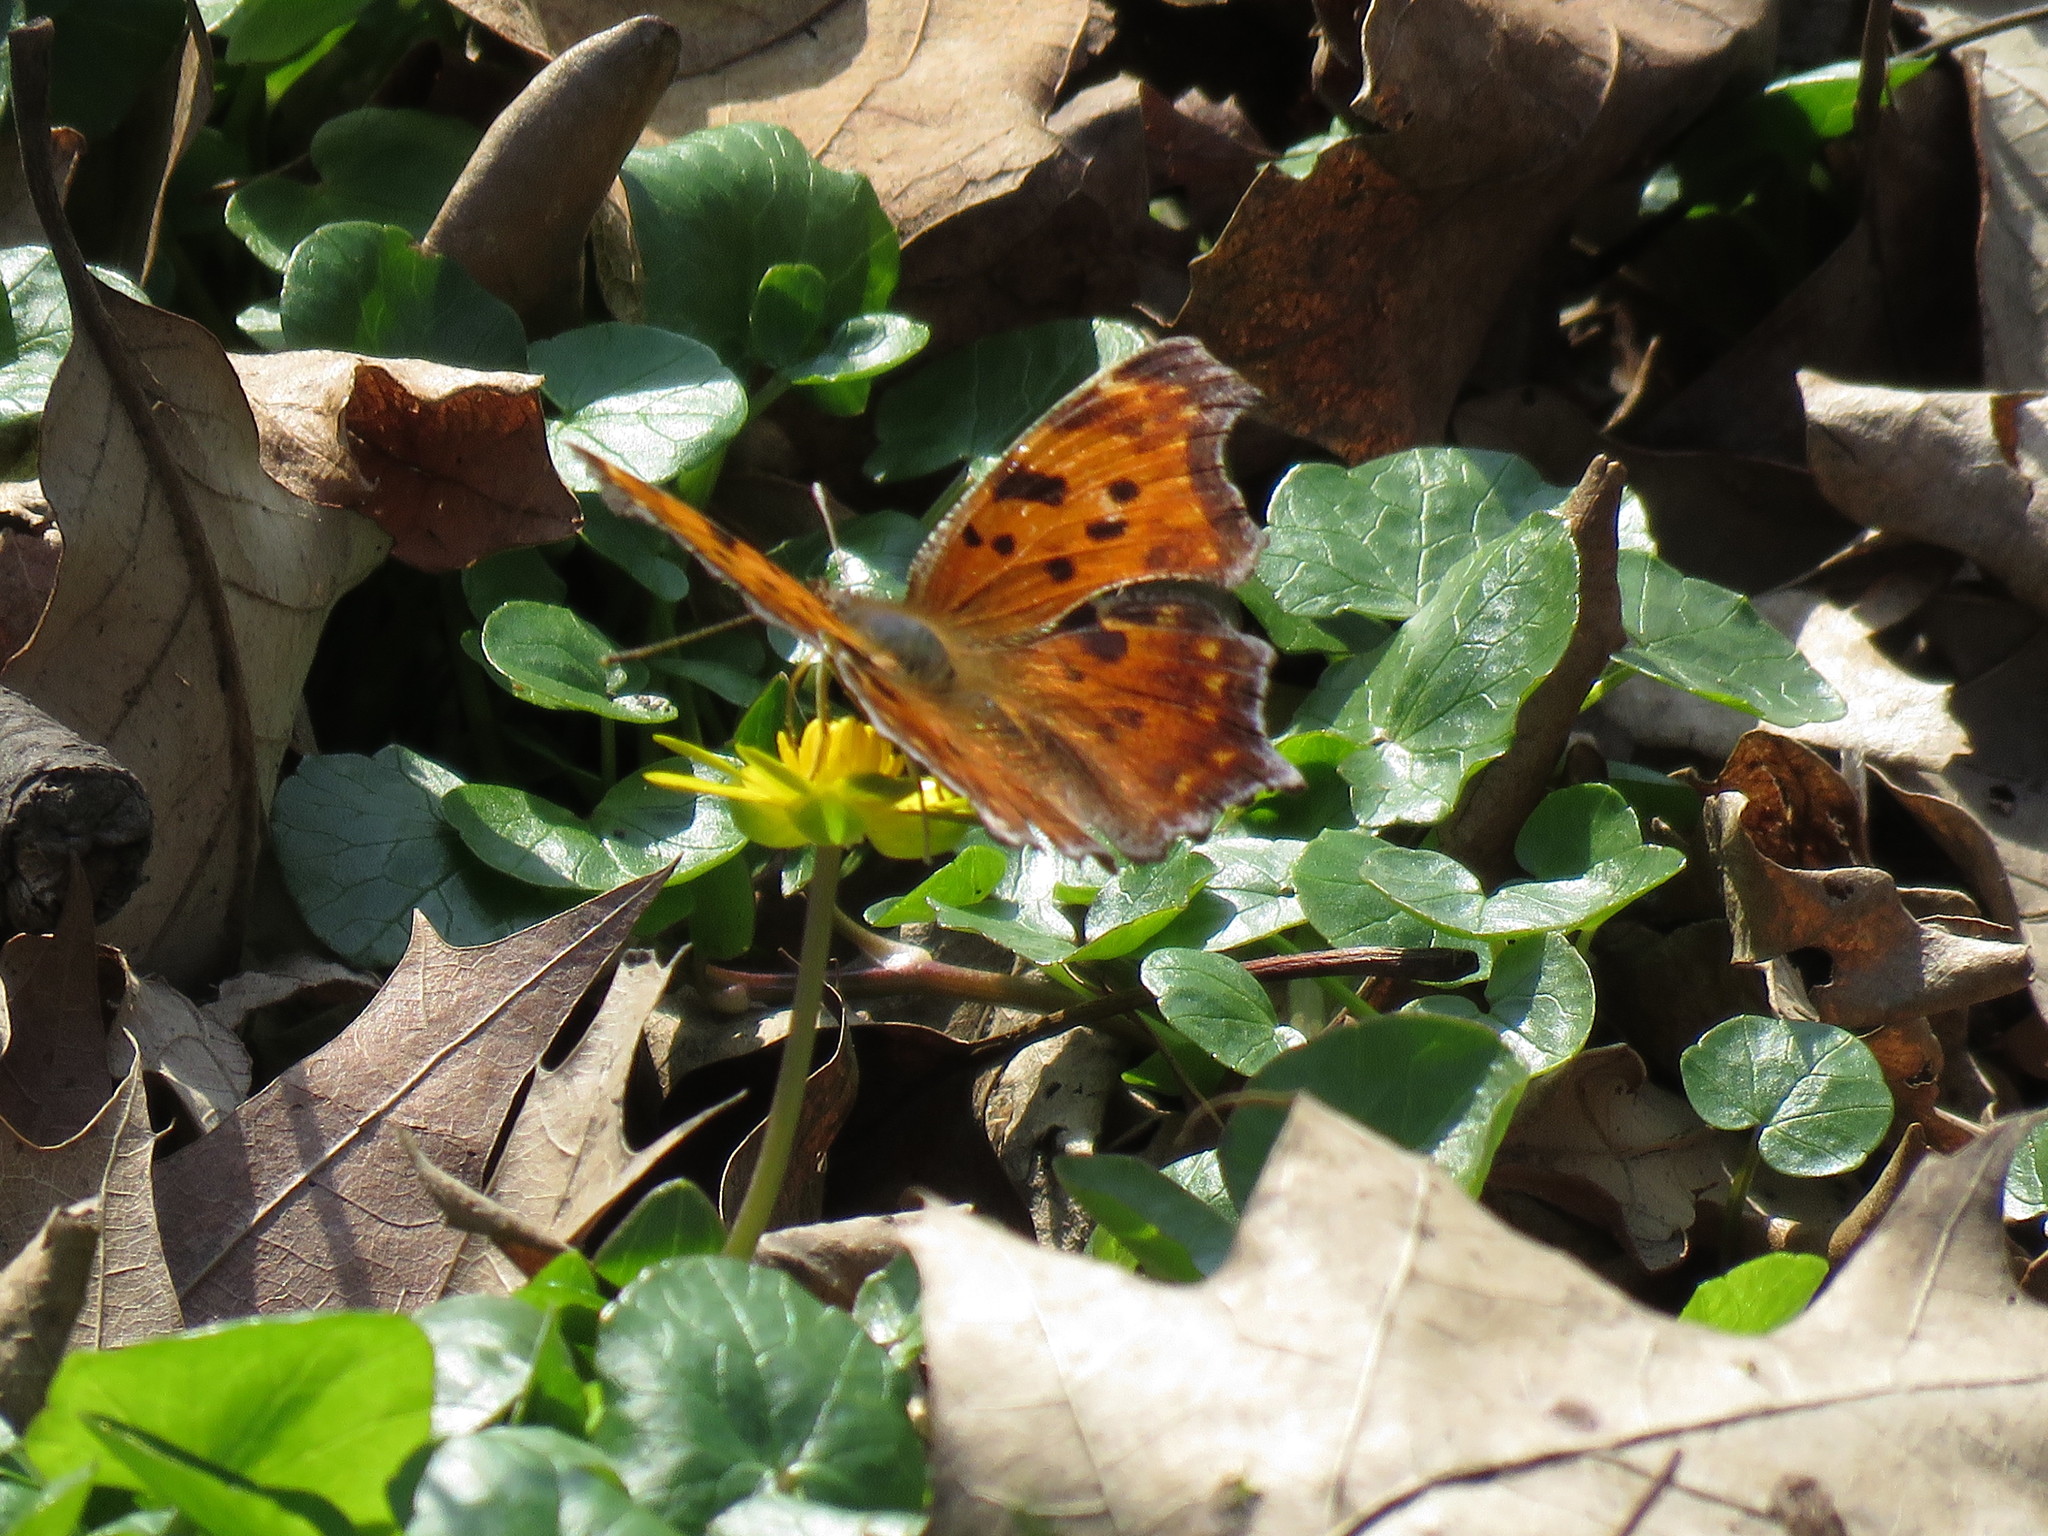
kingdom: Animalia
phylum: Arthropoda
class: Insecta
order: Lepidoptera
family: Nymphalidae
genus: Polygonia
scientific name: Polygonia comma
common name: Eastern comma
